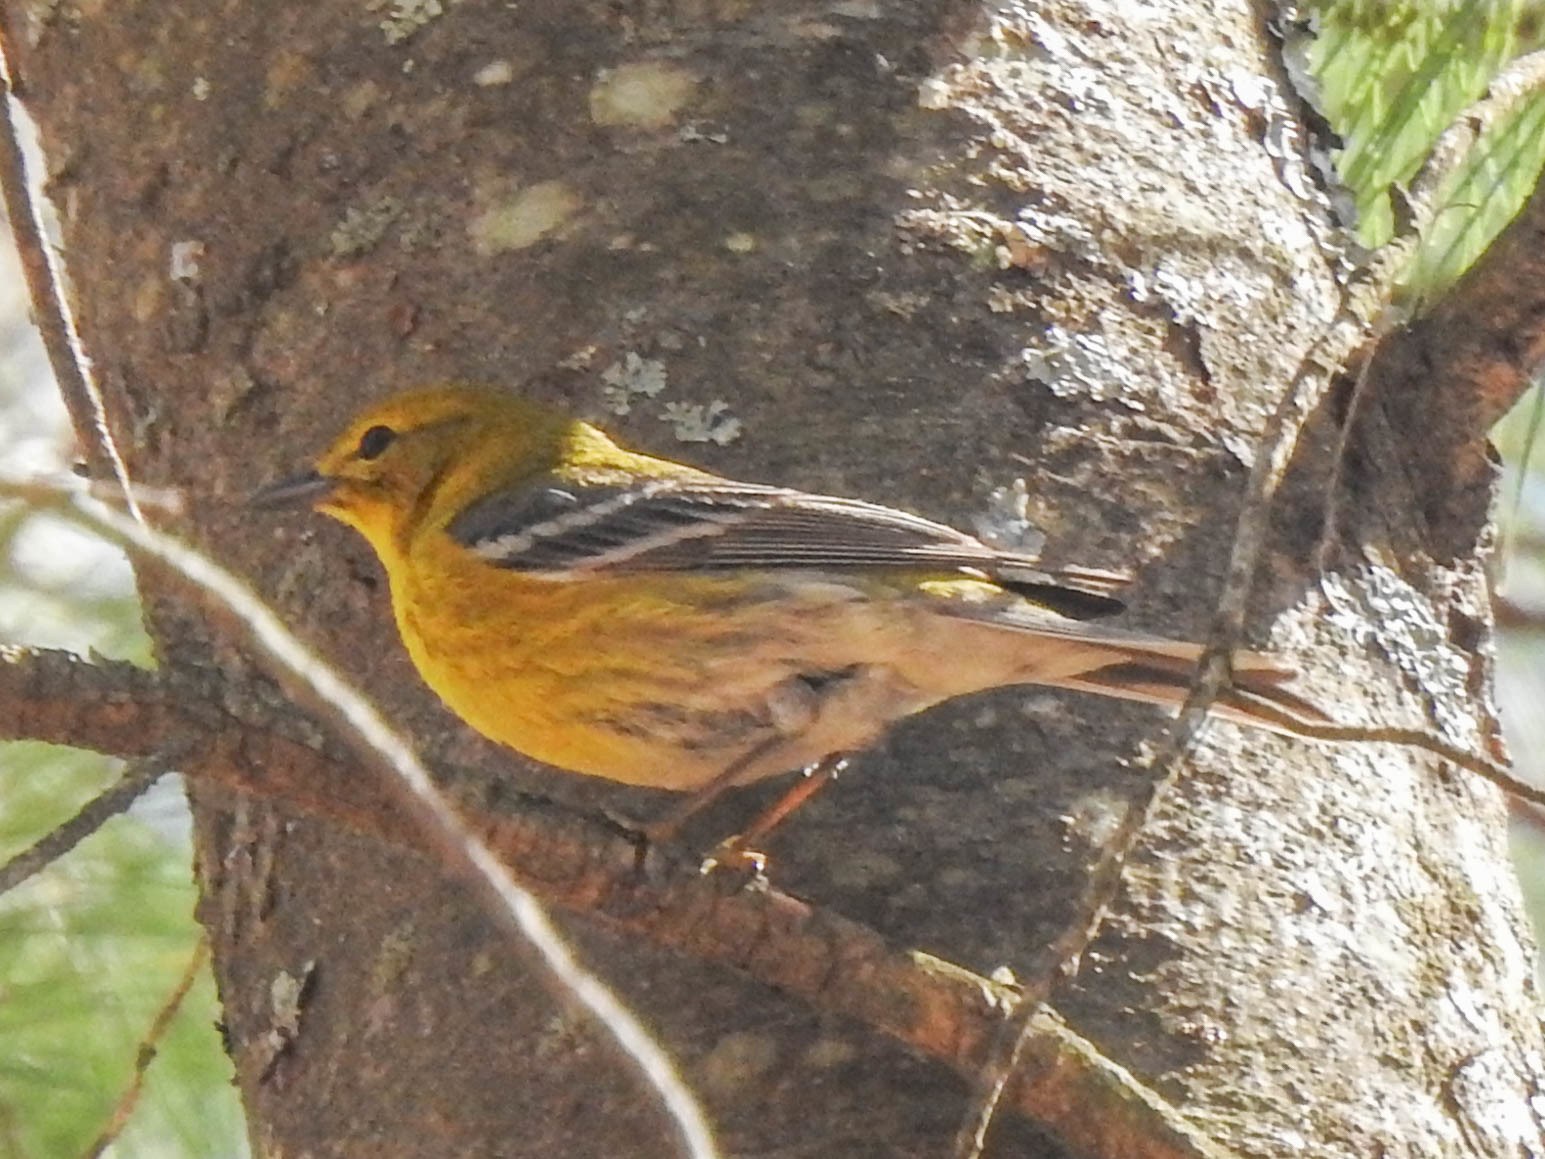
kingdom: Animalia
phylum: Chordata
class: Aves
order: Passeriformes
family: Parulidae
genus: Setophaga
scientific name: Setophaga pinus
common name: Pine warbler
